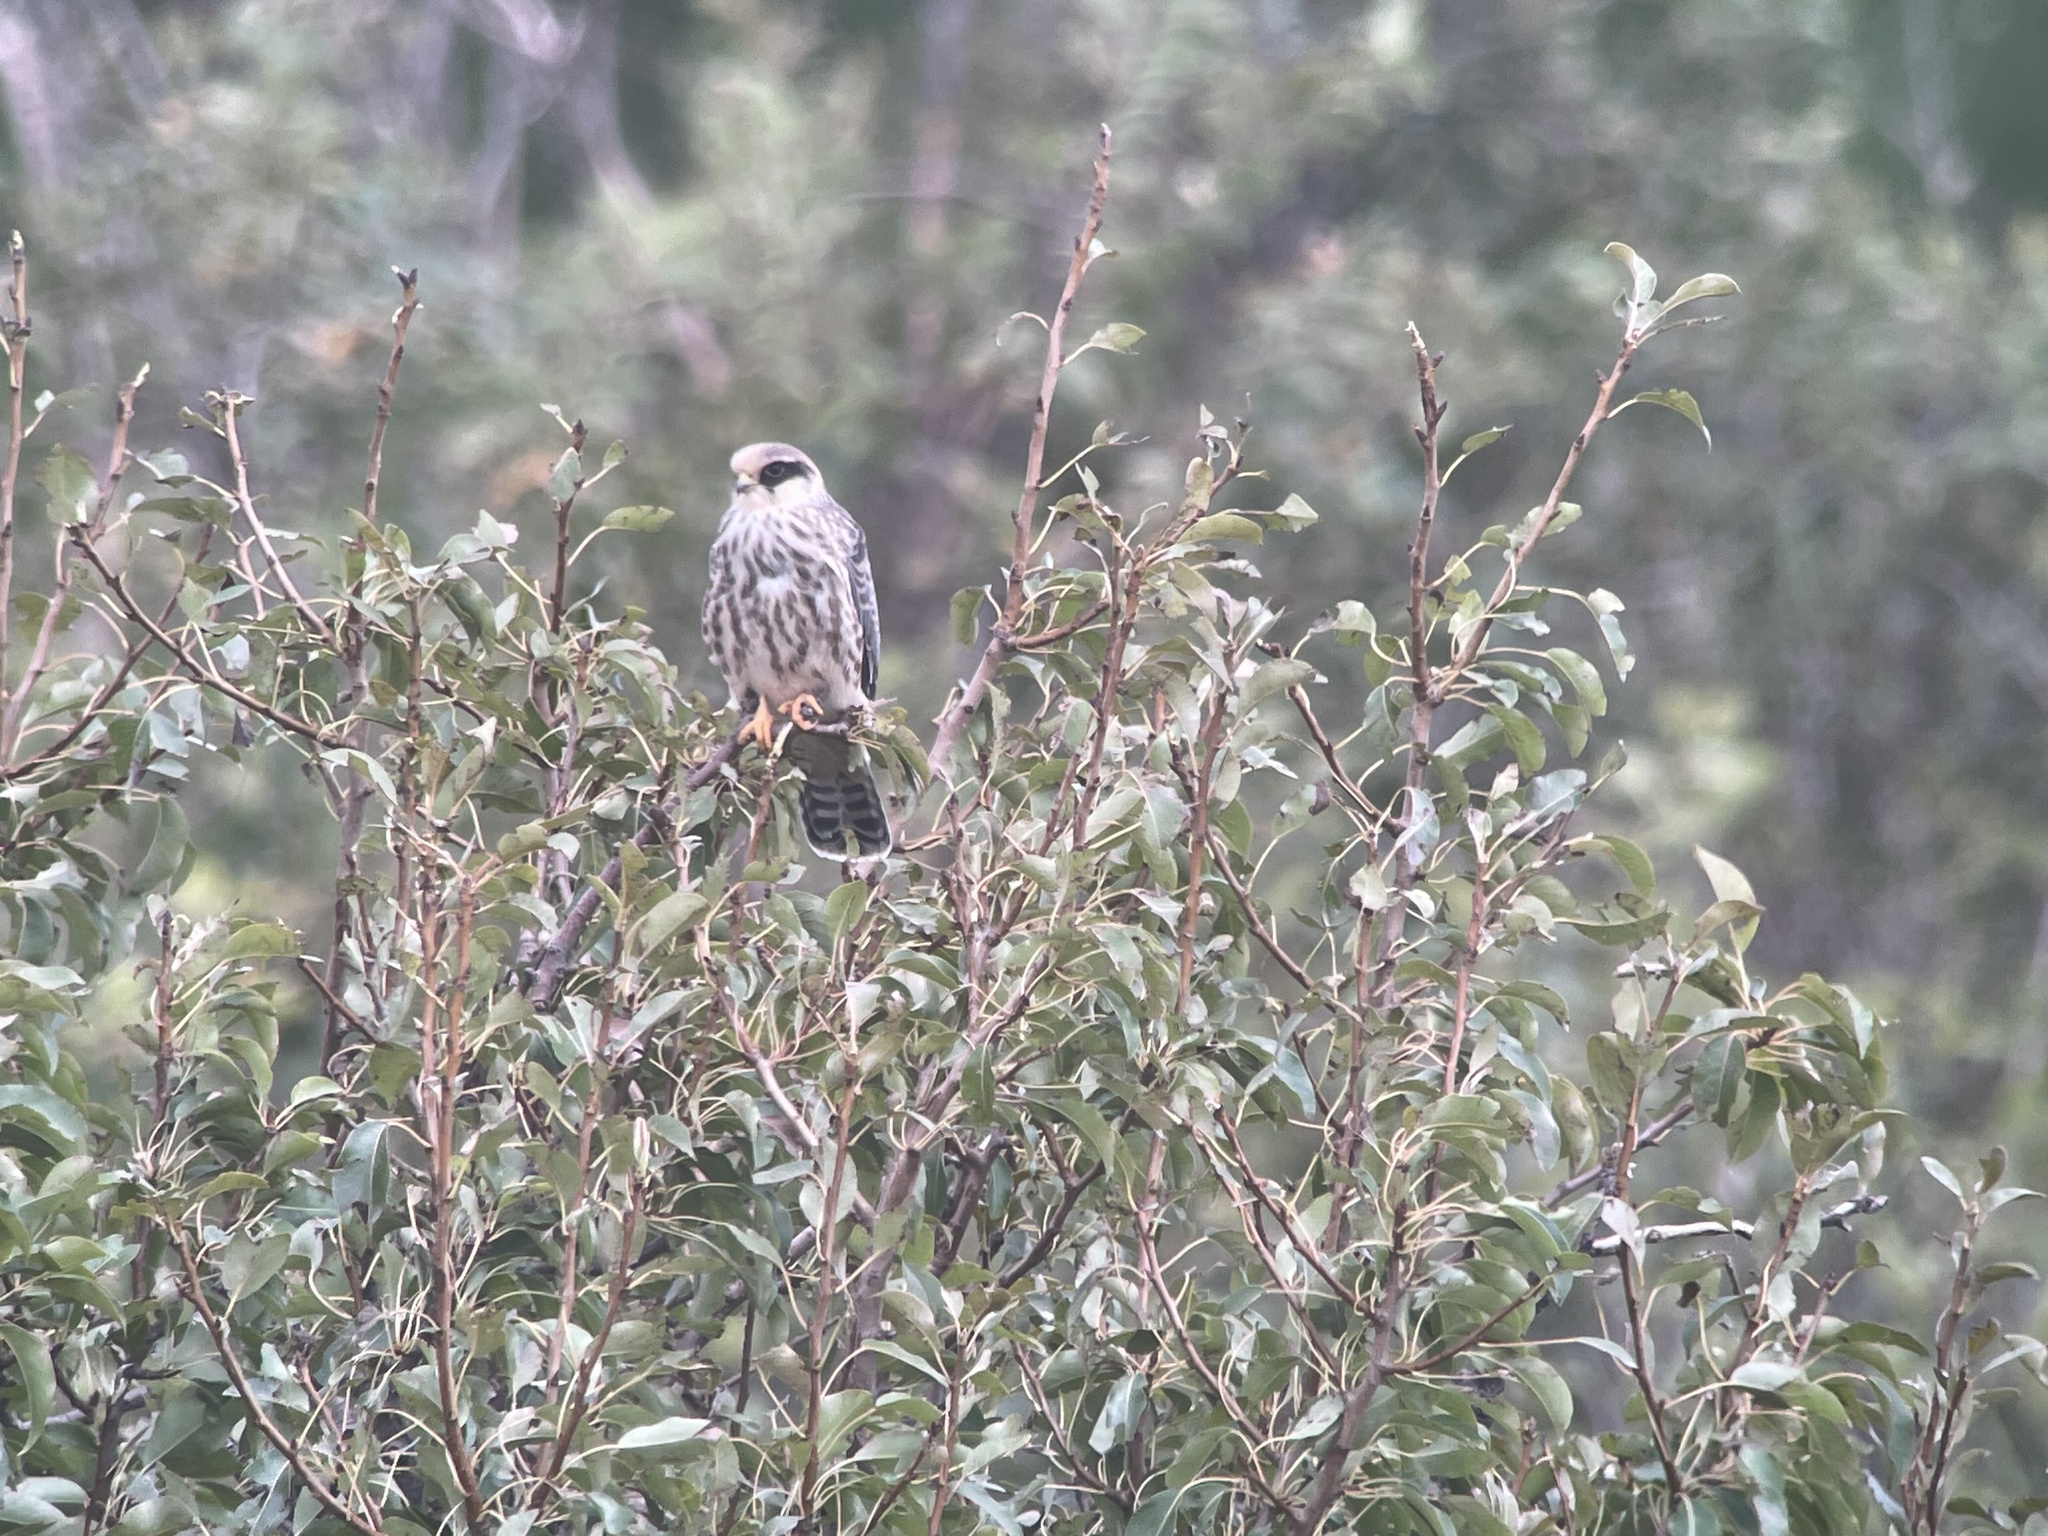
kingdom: Animalia
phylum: Chordata
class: Aves
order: Falconiformes
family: Falconidae
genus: Falco
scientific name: Falco vespertinus
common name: Red-footed falcon
